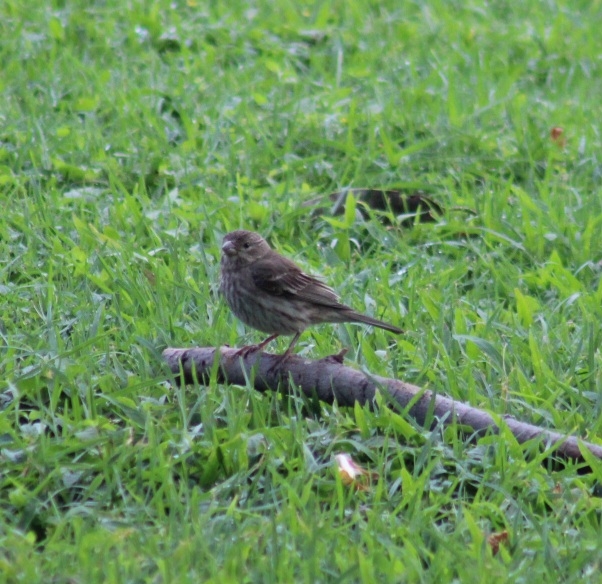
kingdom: Animalia
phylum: Chordata
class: Aves
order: Passeriformes
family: Fringillidae
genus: Haemorhous
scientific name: Haemorhous mexicanus
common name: House finch
